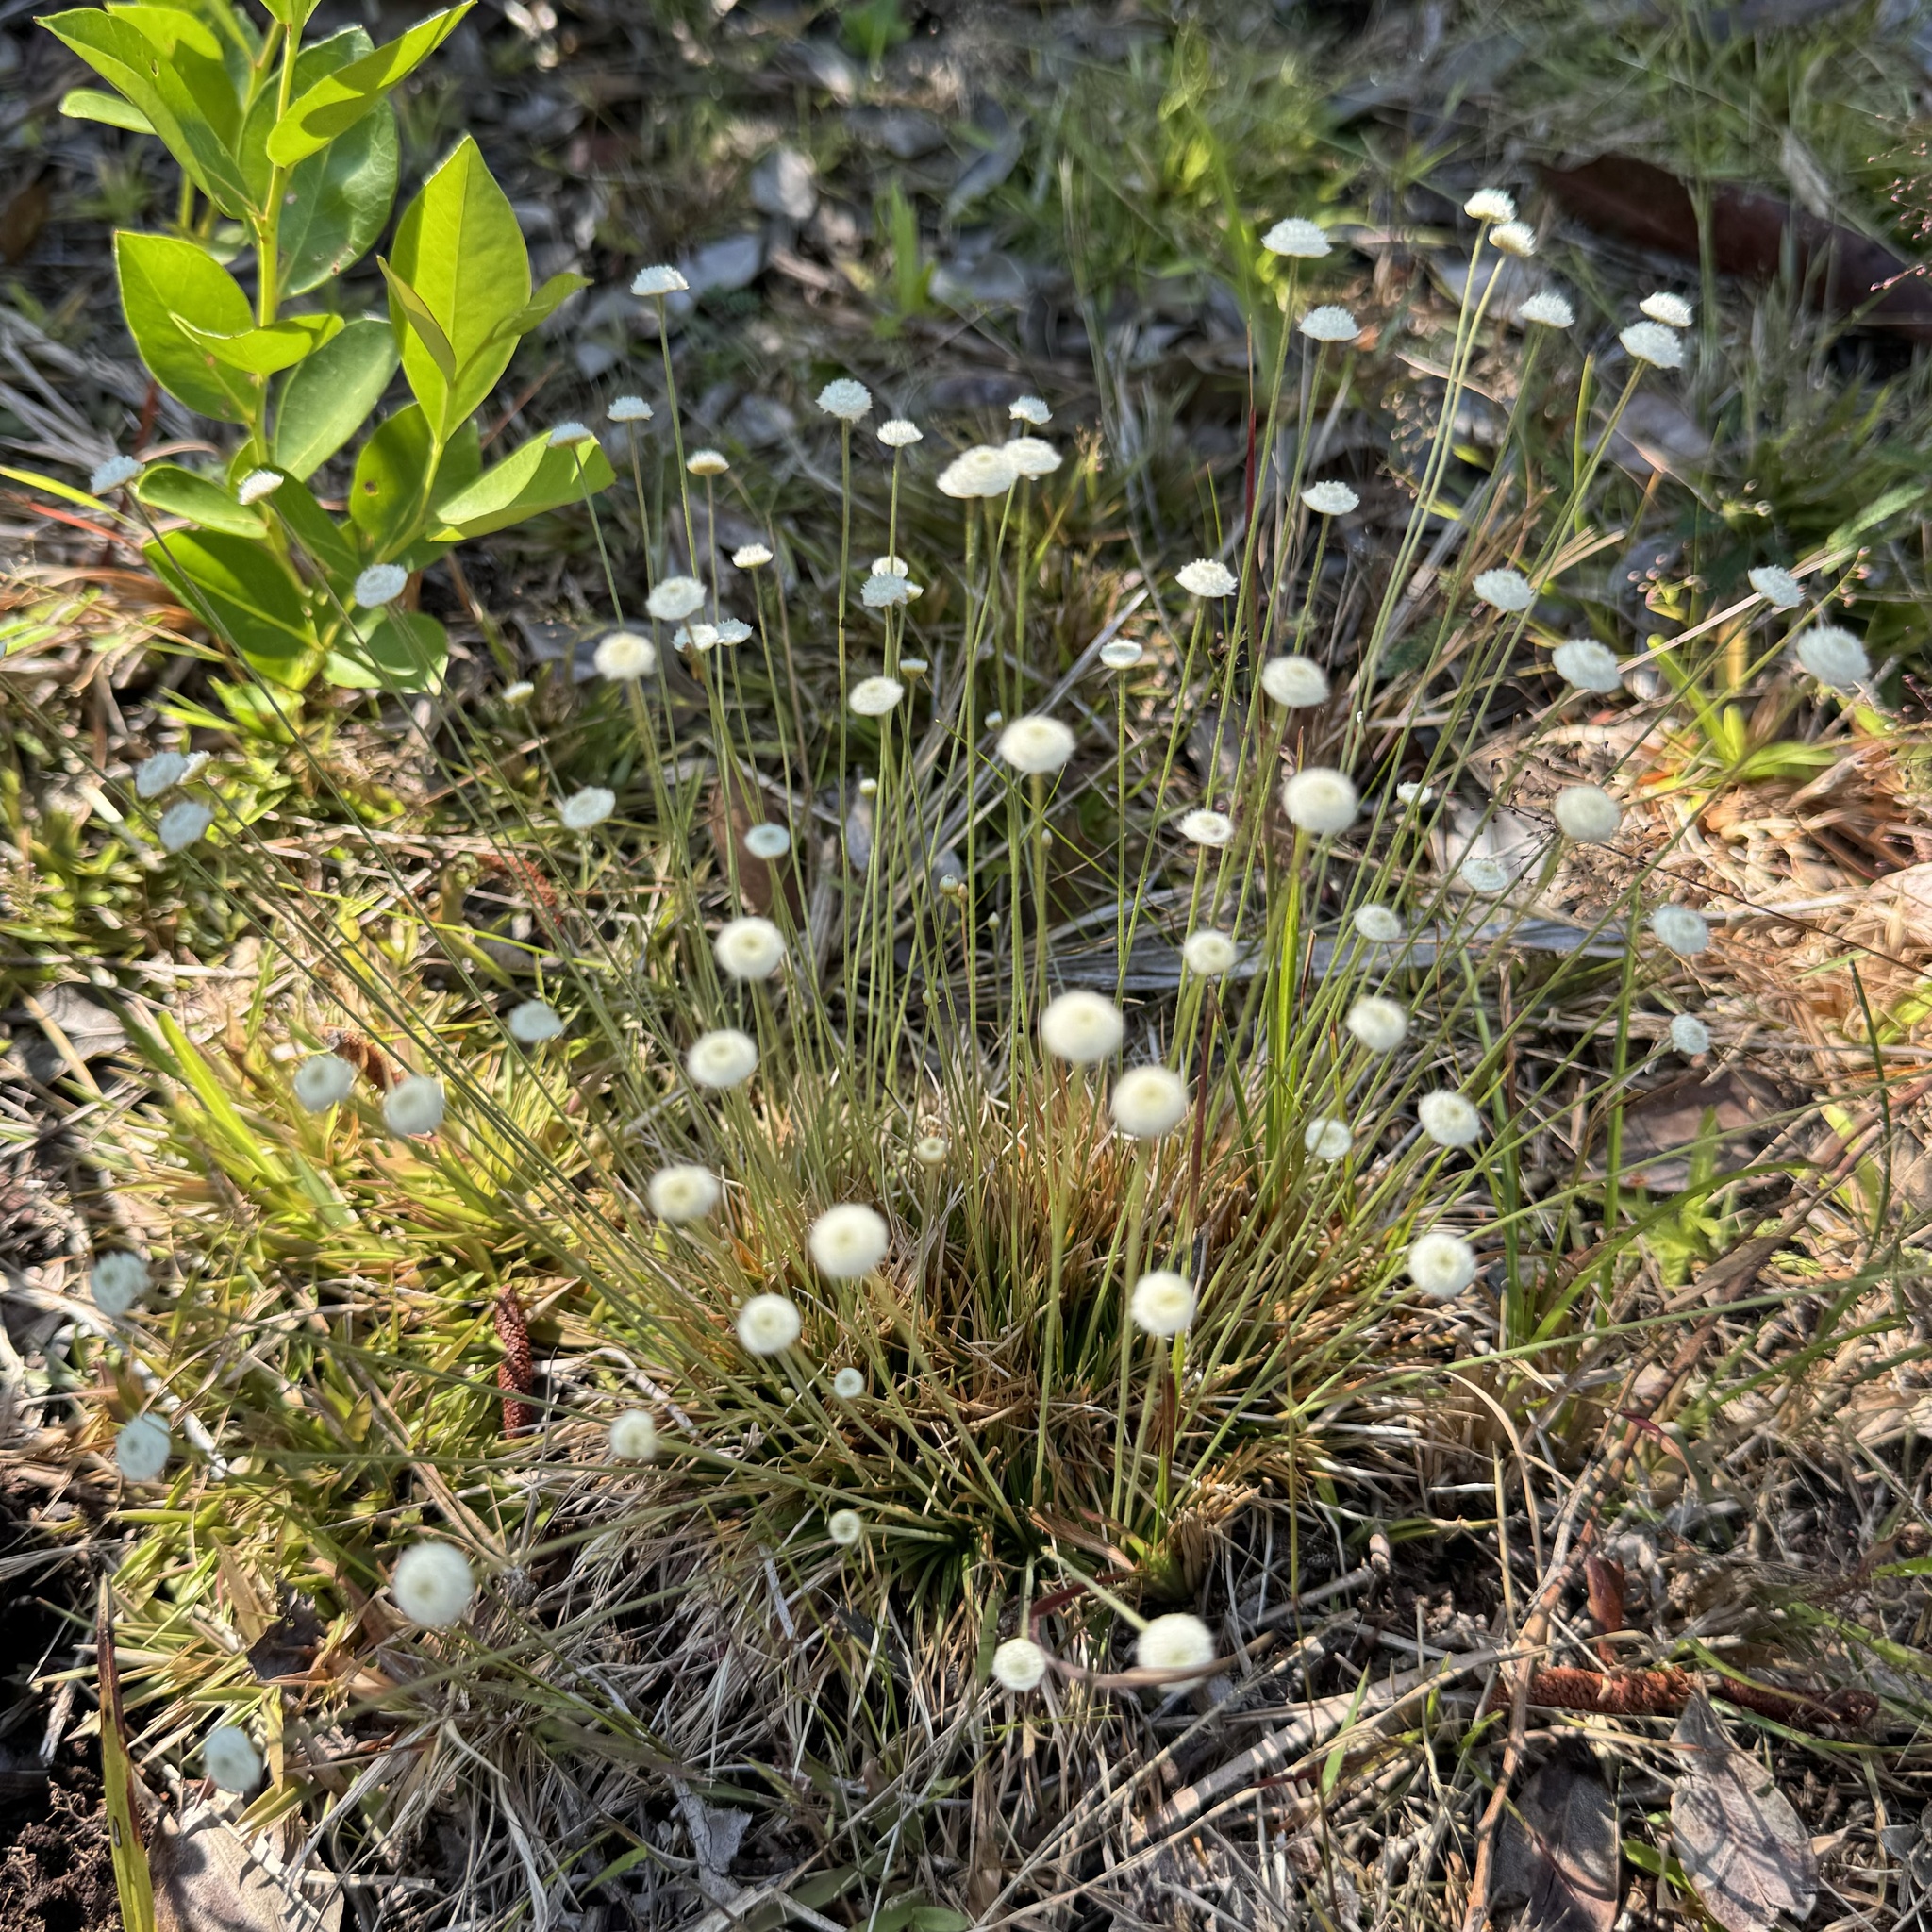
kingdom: Plantae
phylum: Tracheophyta
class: Liliopsida
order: Poales
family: Eriocaulaceae
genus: Syngonanthus
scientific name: Syngonanthus flavidulus
